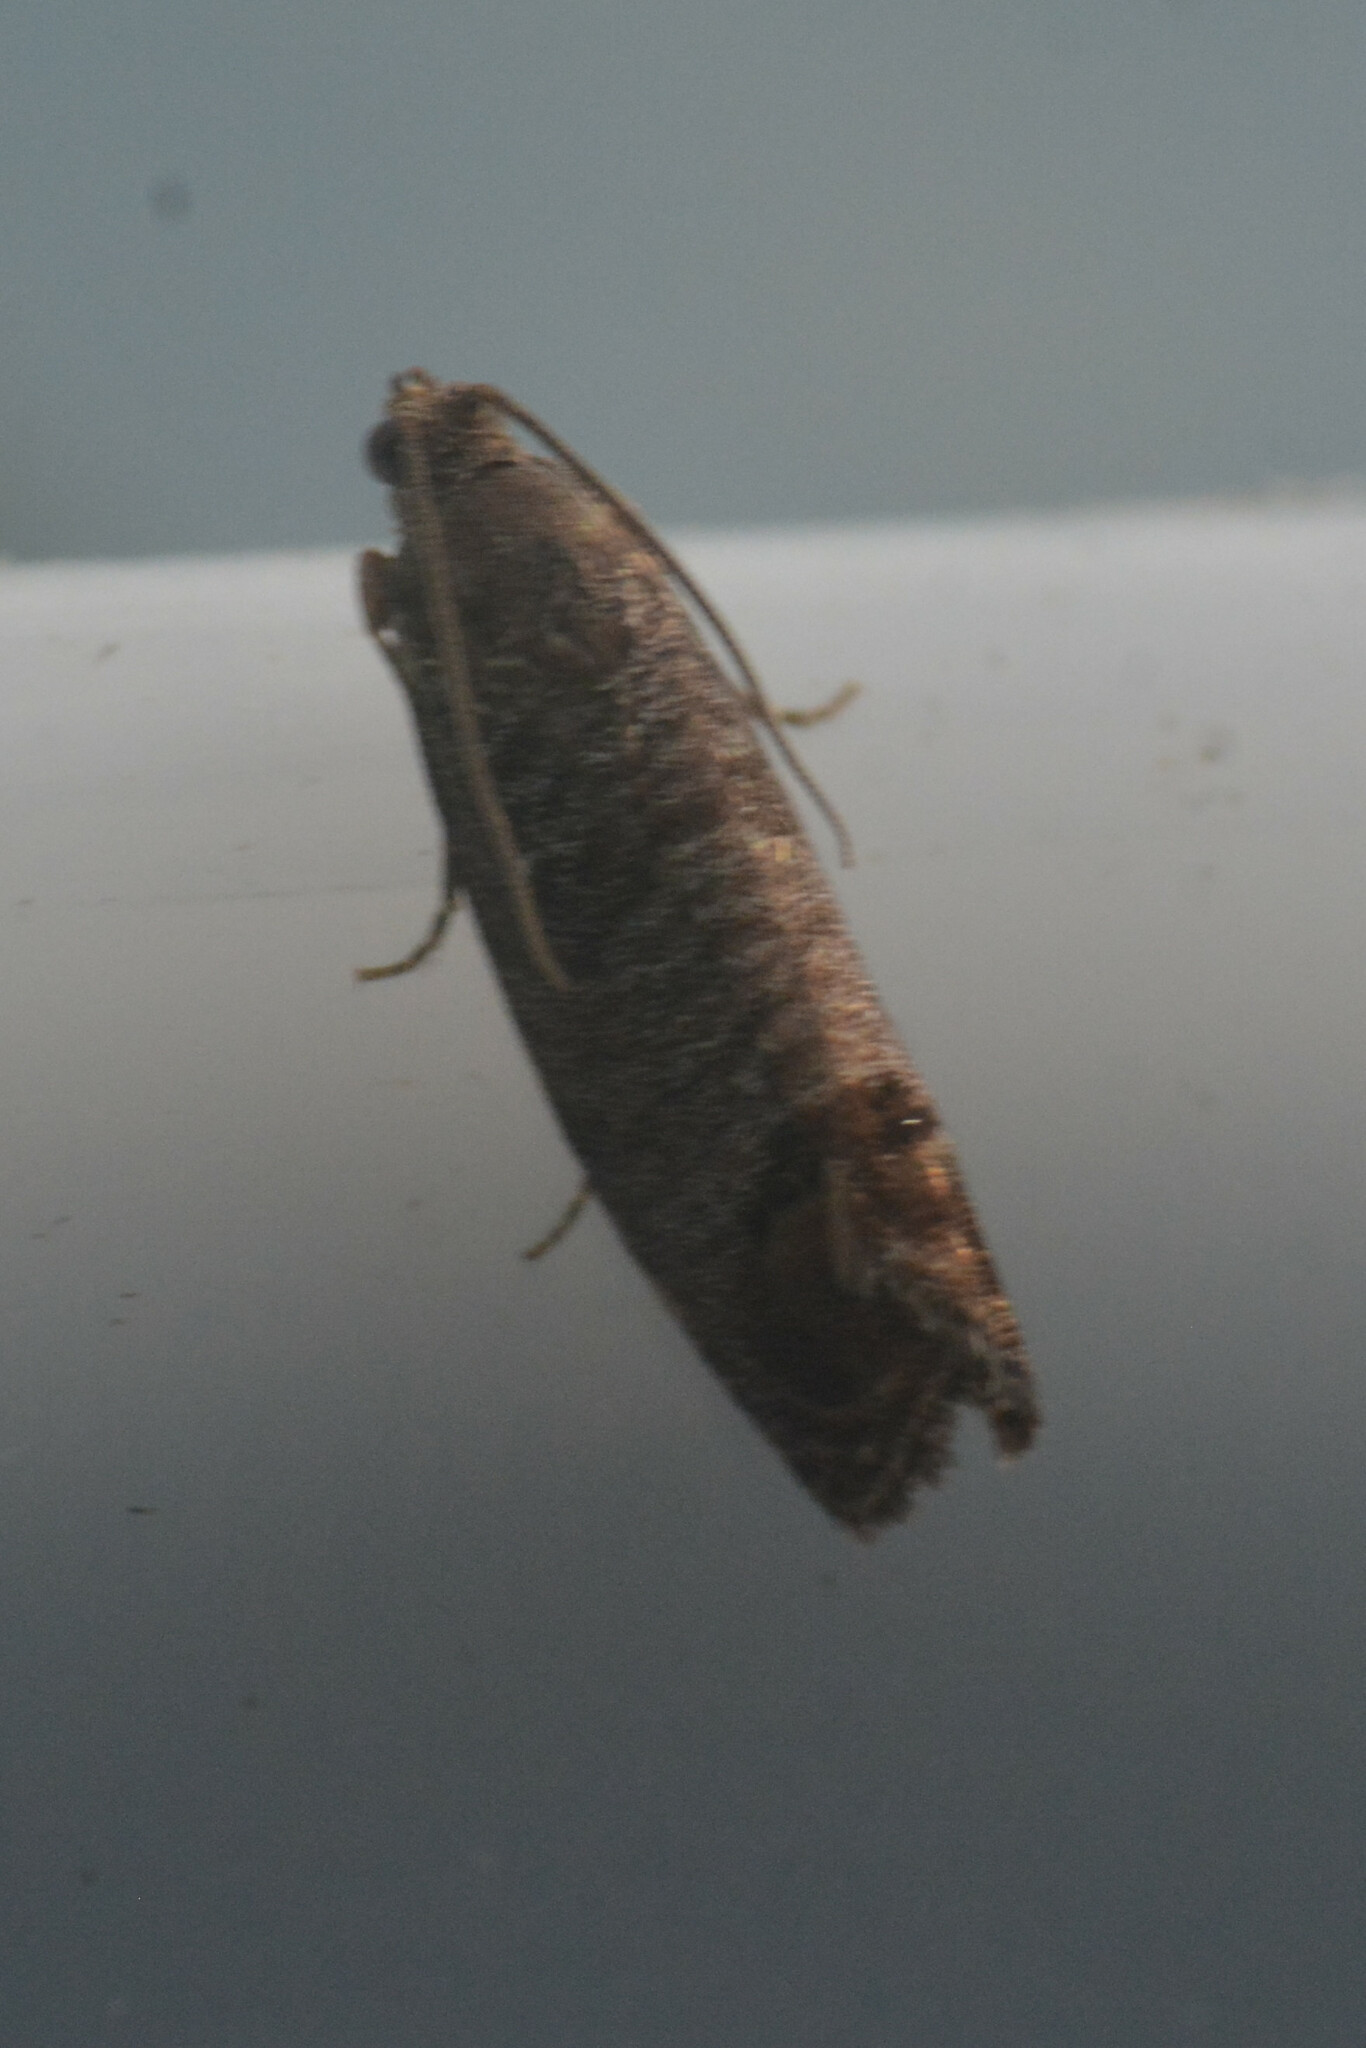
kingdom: Animalia
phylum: Arthropoda
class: Insecta
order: Lepidoptera
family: Tortricidae
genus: Cydia
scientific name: Cydia pomonella
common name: Codling moth
